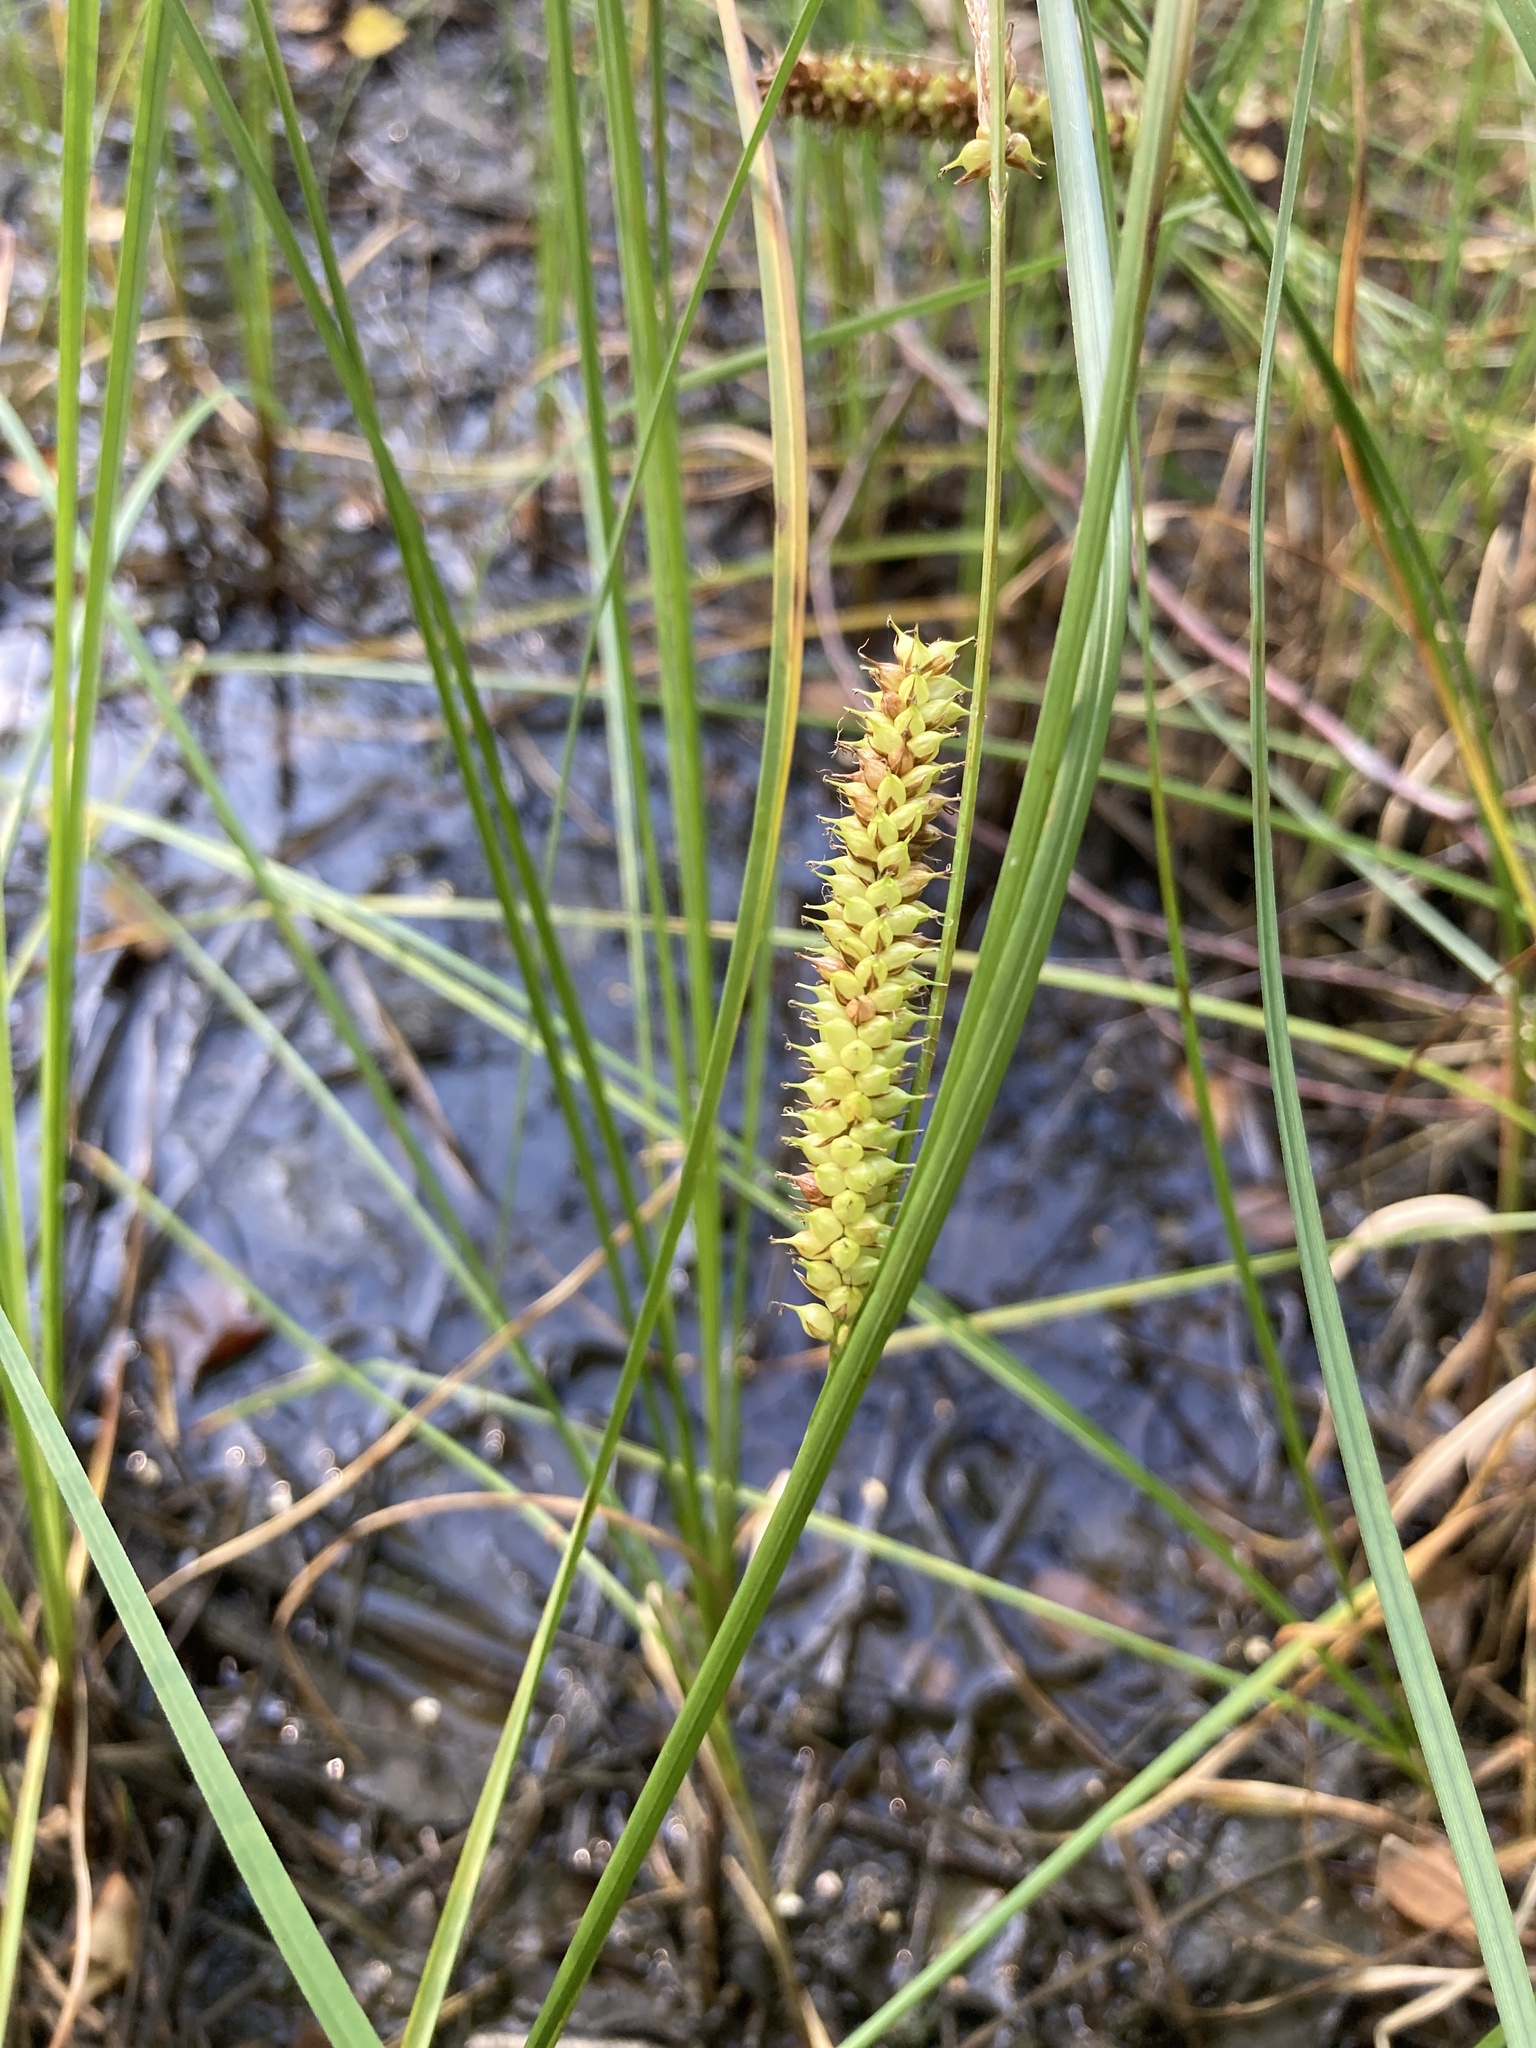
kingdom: Plantae
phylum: Tracheophyta
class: Liliopsida
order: Poales
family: Cyperaceae
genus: Carex
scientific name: Carex rostrata
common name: Bottle sedge
